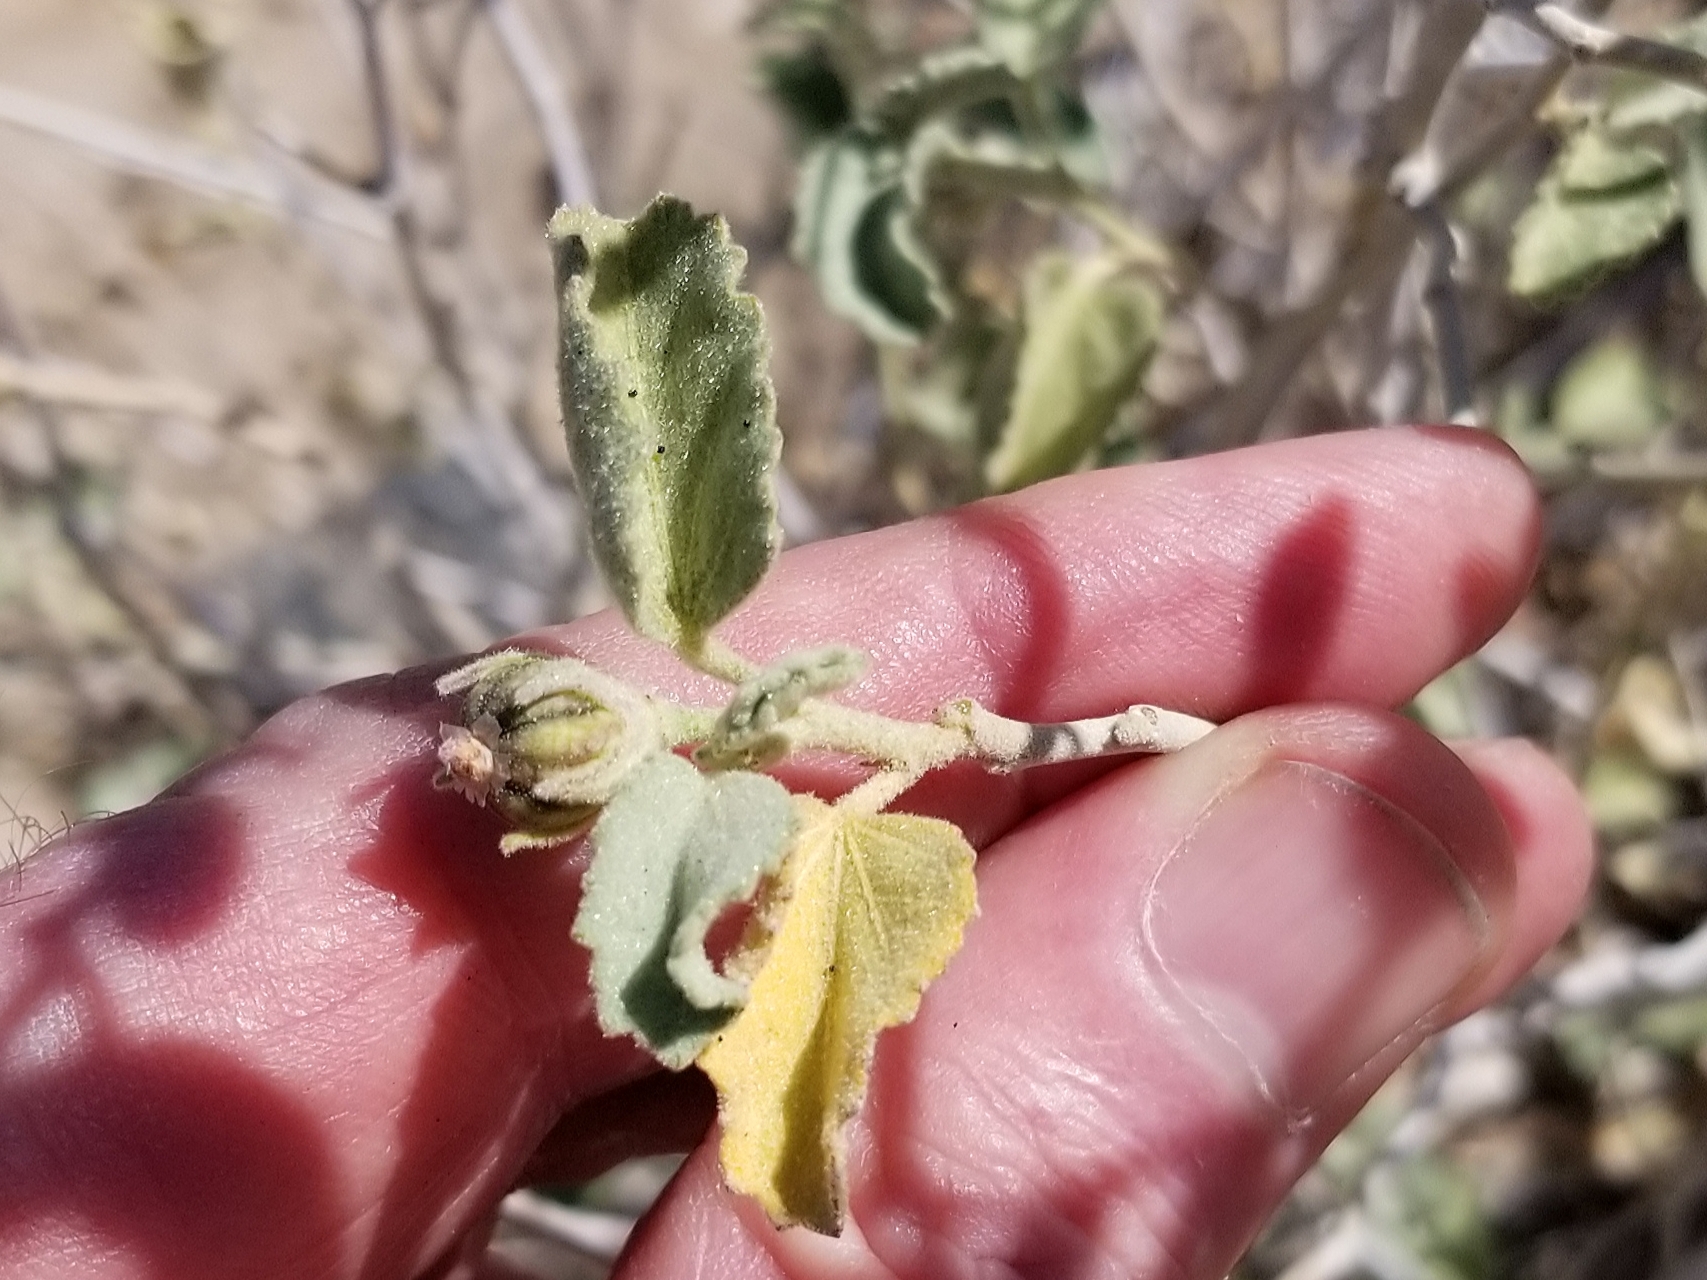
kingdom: Plantae
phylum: Tracheophyta
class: Magnoliopsida
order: Malvales
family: Malvaceae
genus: Hibiscus
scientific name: Hibiscus denudatus
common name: Paleface
